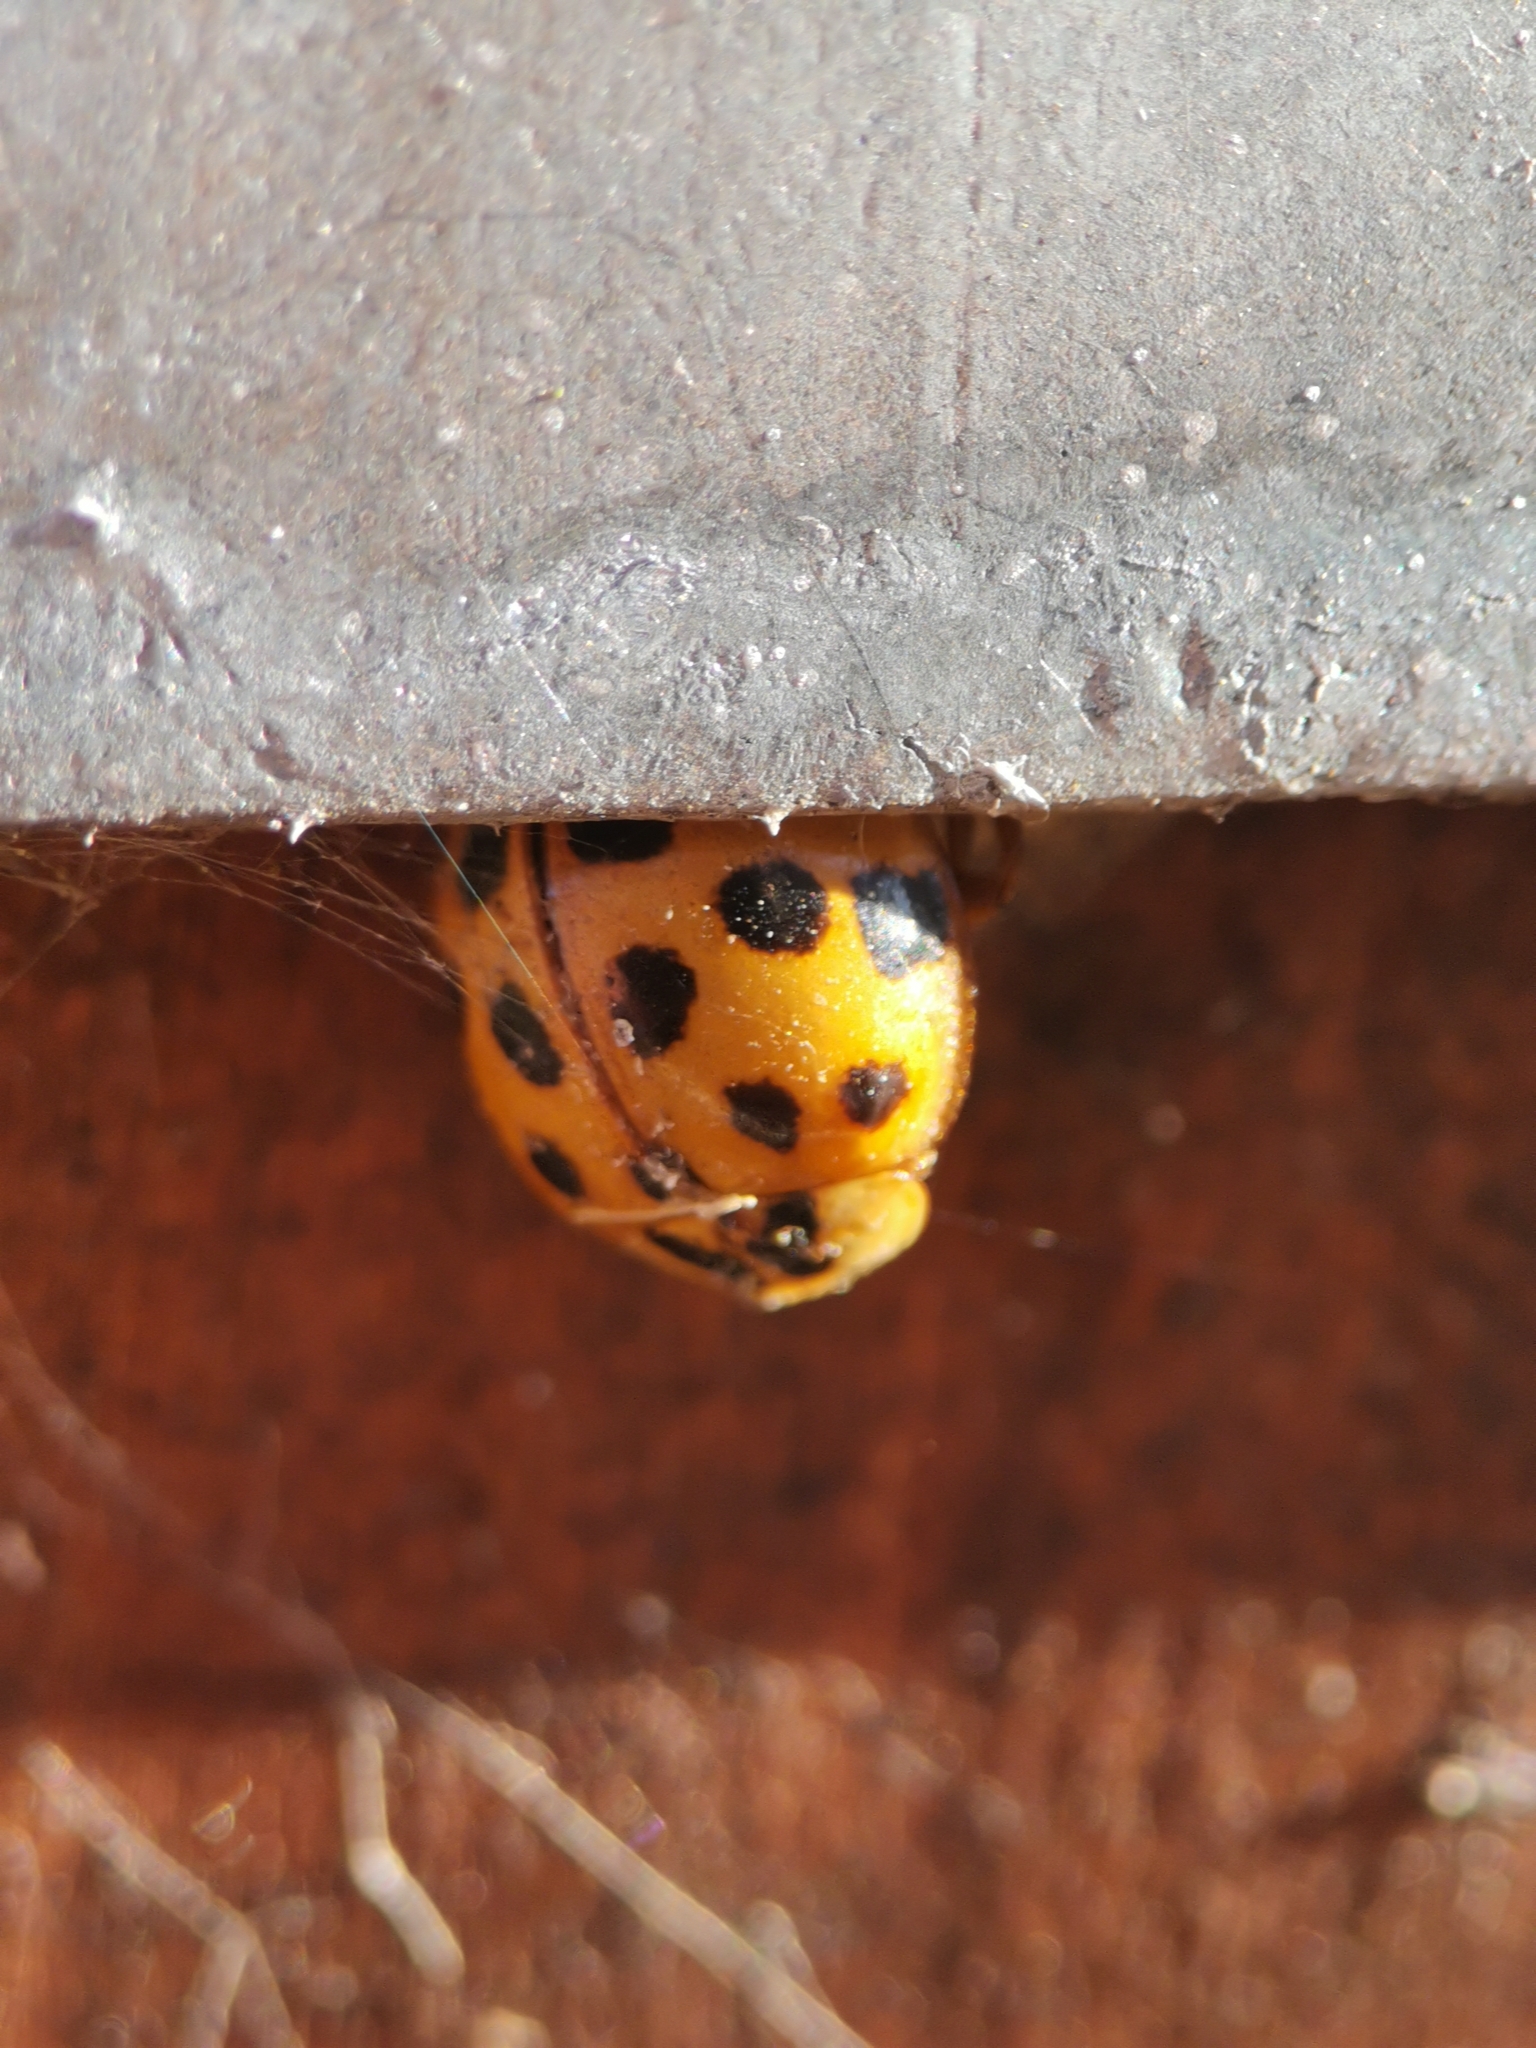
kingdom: Animalia
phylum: Arthropoda
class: Insecta
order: Coleoptera
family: Coccinellidae
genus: Harmonia
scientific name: Harmonia axyridis
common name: Harlequin ladybird
